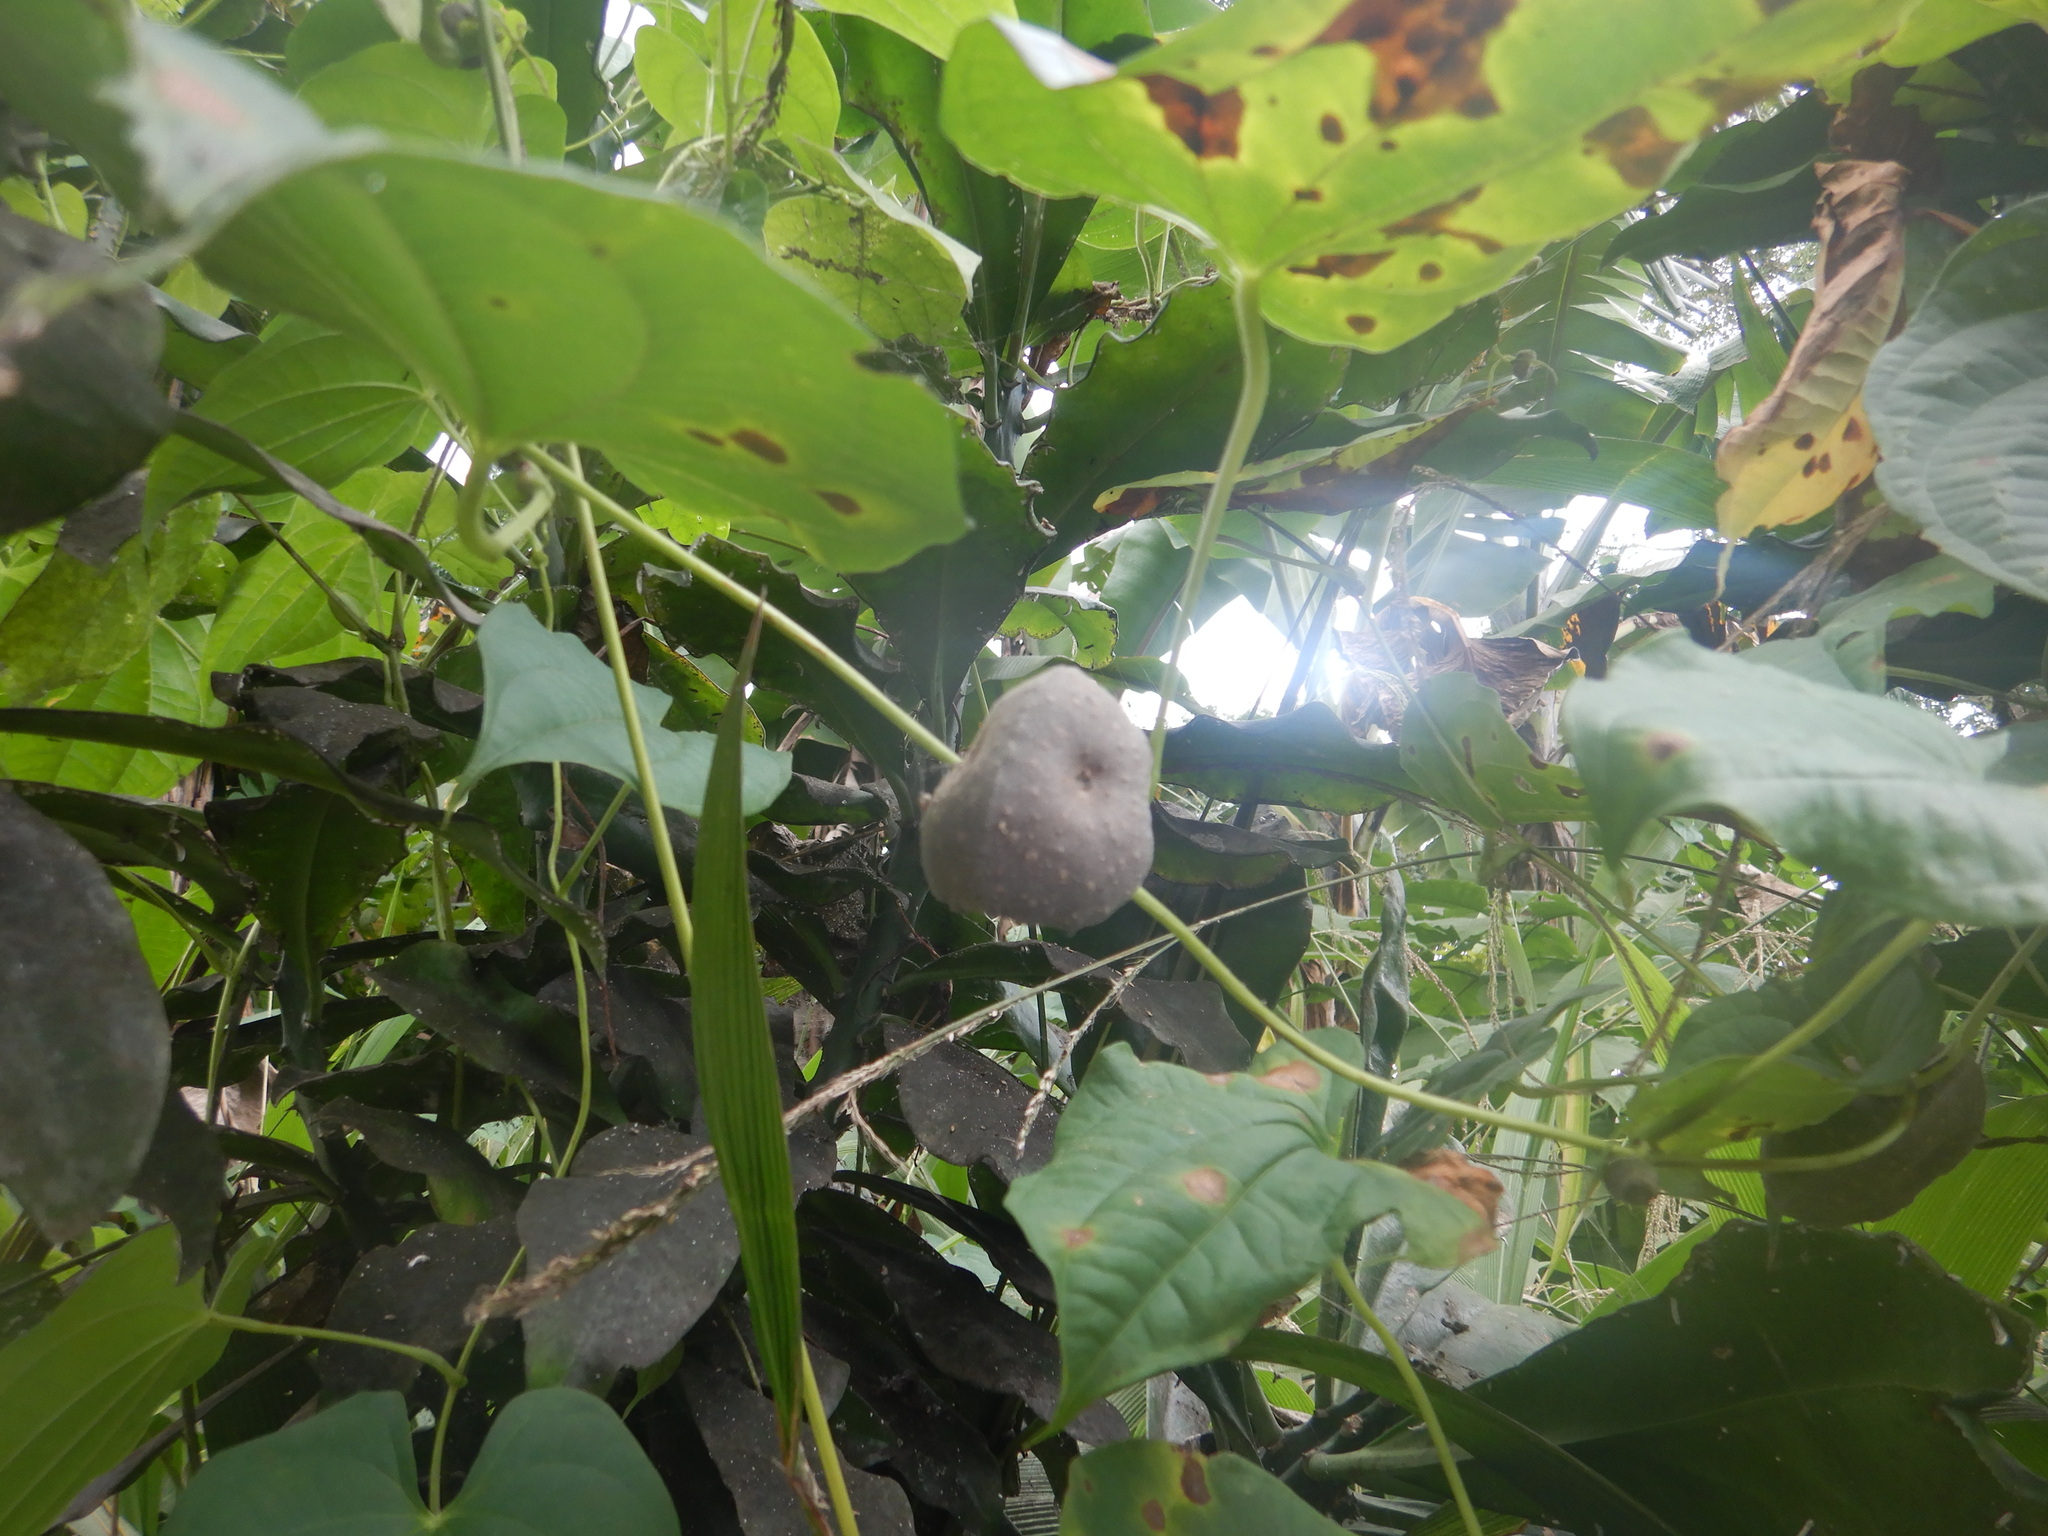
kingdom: Plantae
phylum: Tracheophyta
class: Liliopsida
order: Dioscoreales
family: Dioscoreaceae
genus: Dioscorea
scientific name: Dioscorea bulbifera
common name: Air yam
